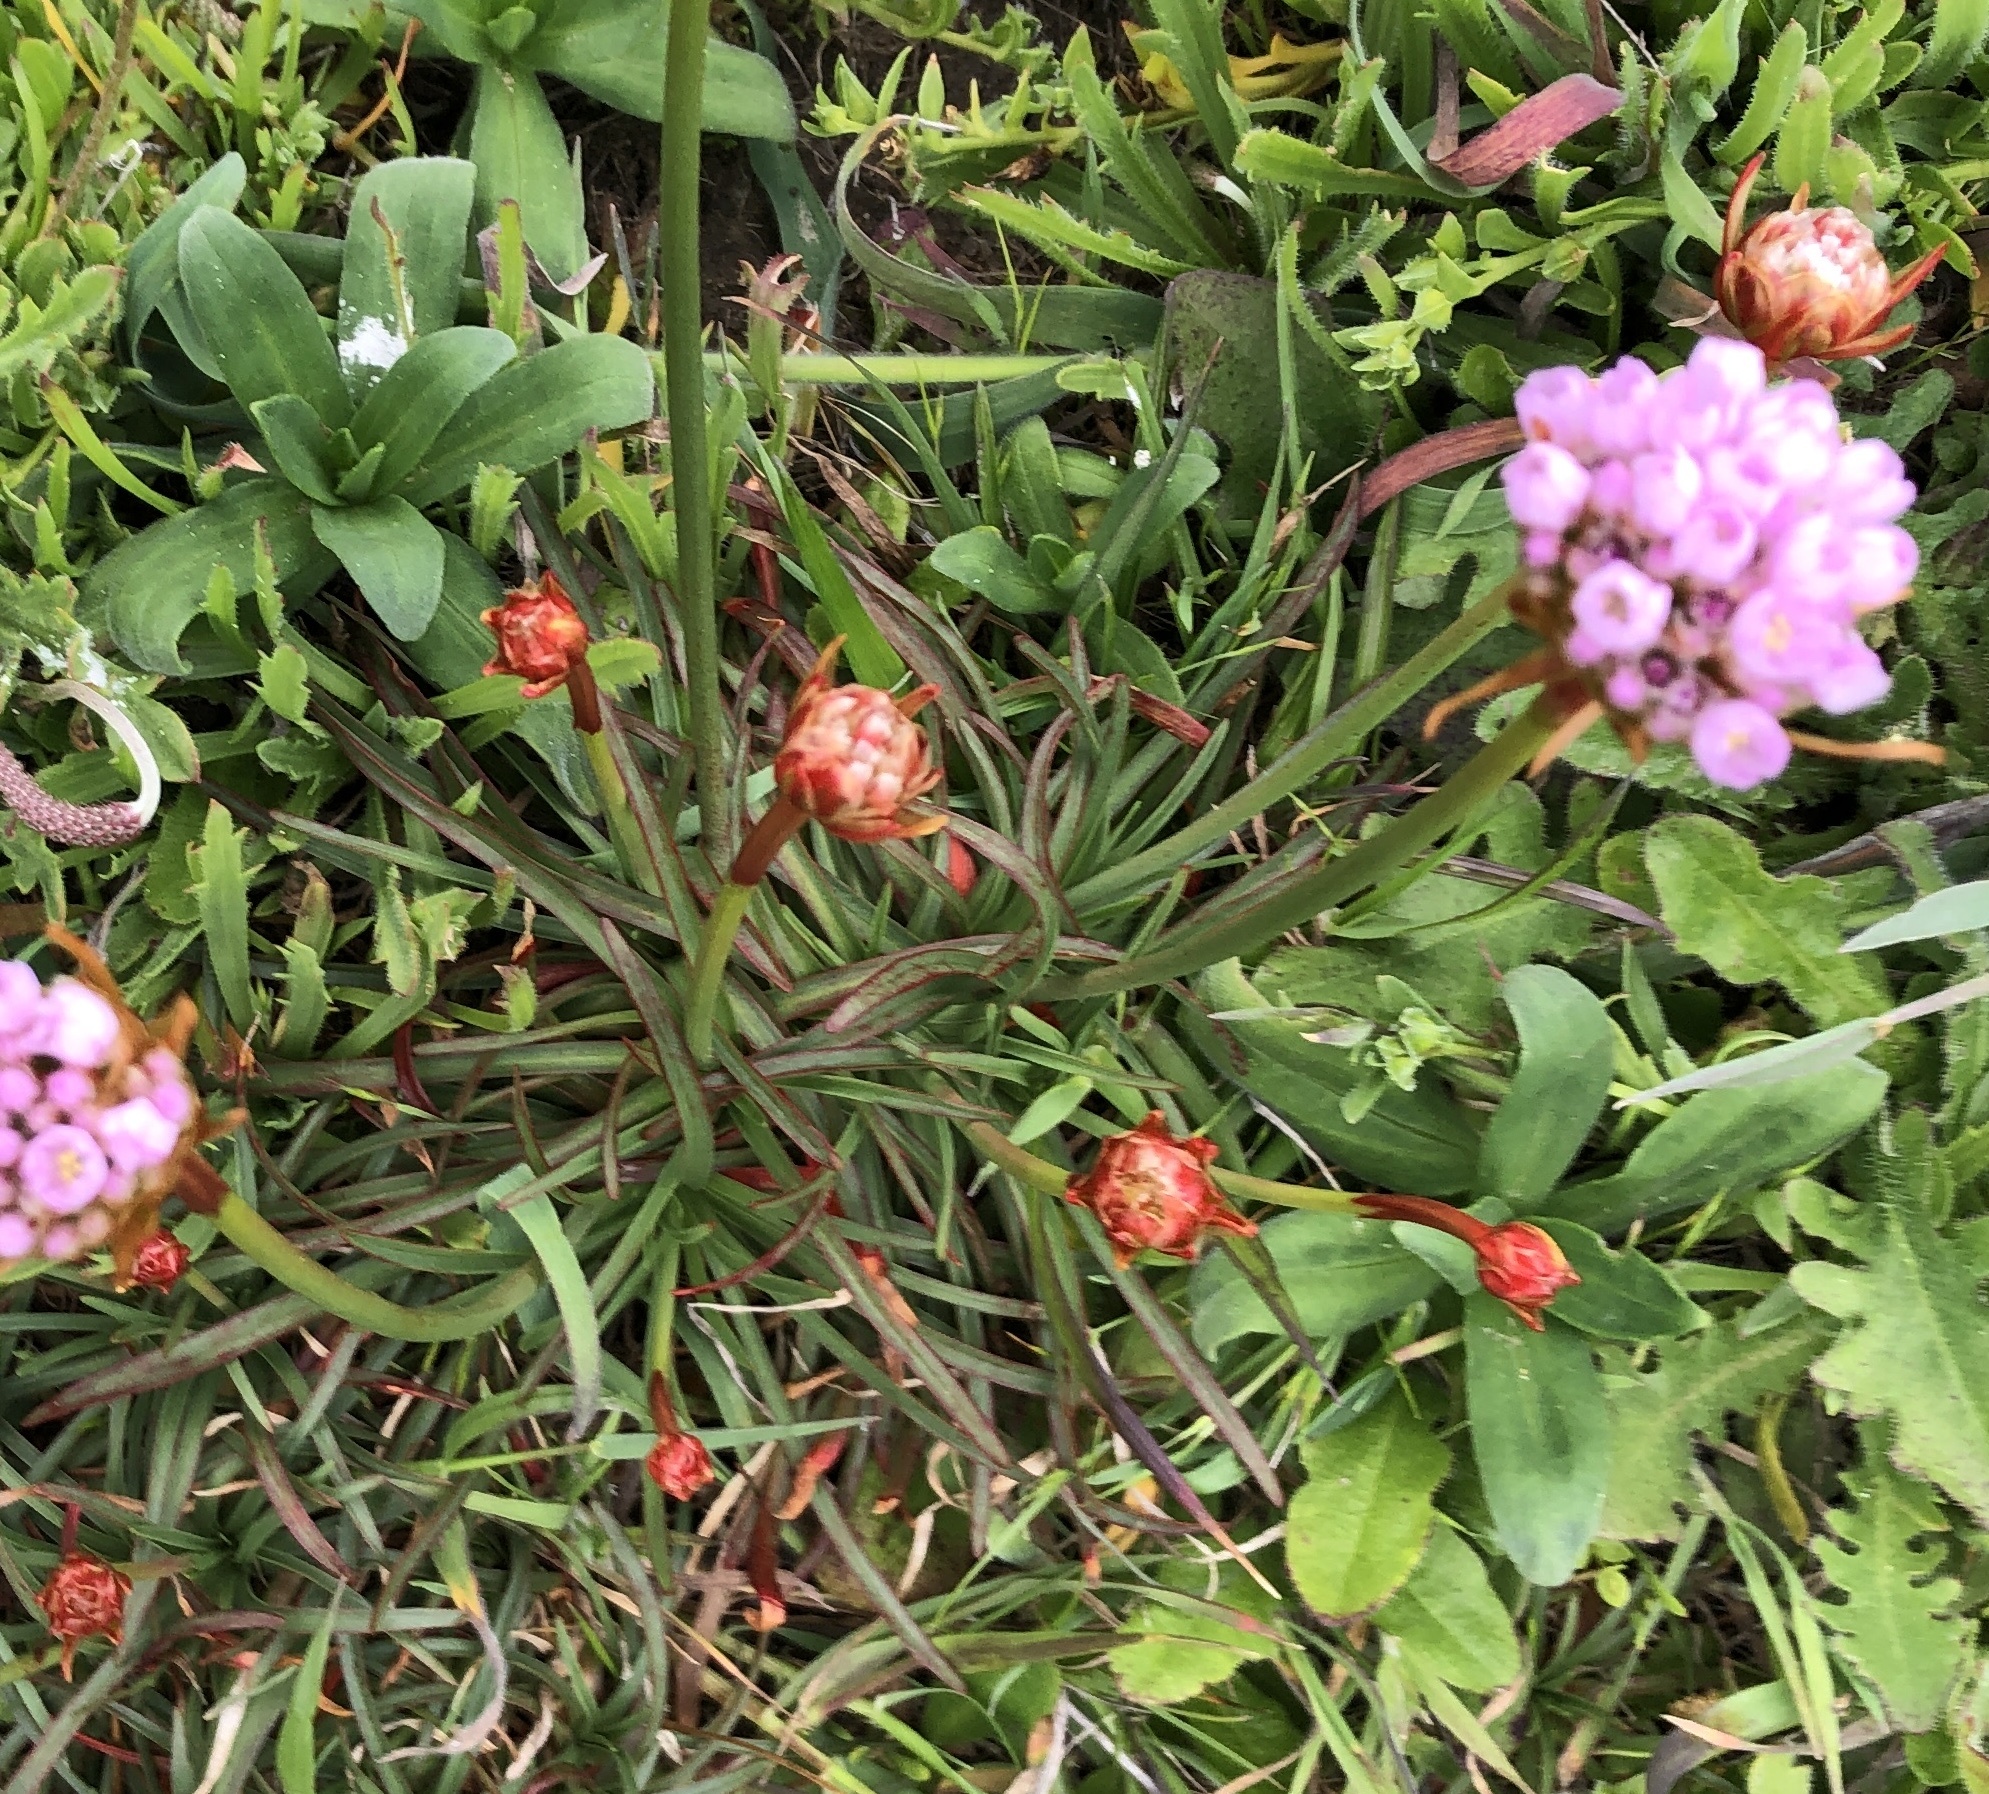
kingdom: Plantae
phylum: Tracheophyta
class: Magnoliopsida
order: Caryophyllales
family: Plumbaginaceae
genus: Armeria
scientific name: Armeria maritima
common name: Thrift
